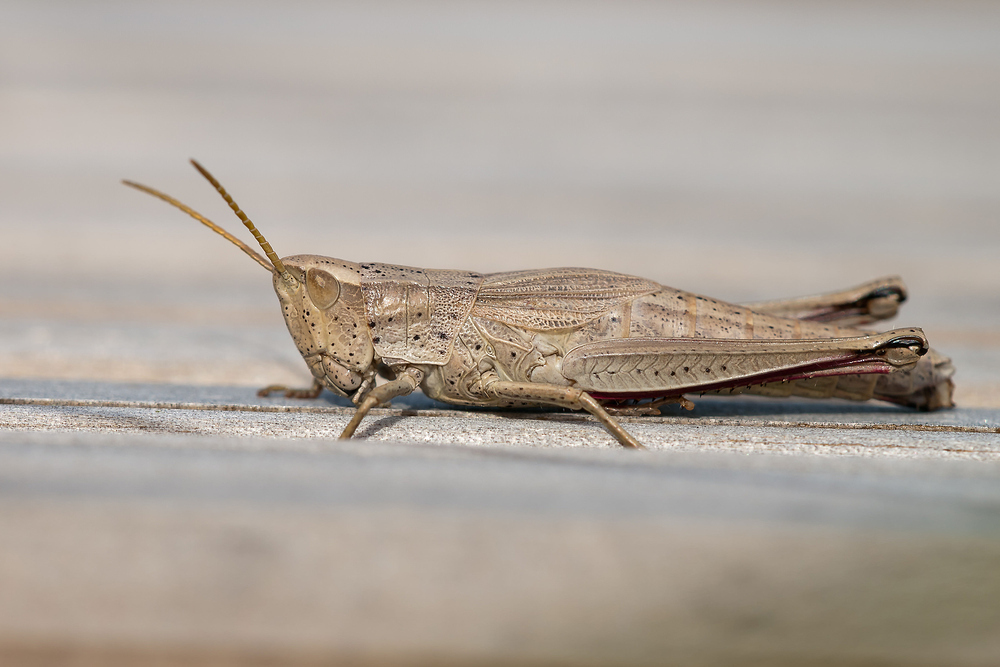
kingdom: Animalia
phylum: Arthropoda
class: Insecta
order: Orthoptera
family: Acrididae
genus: Chrysochraon
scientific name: Chrysochraon dispar
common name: Large gold grasshopper
